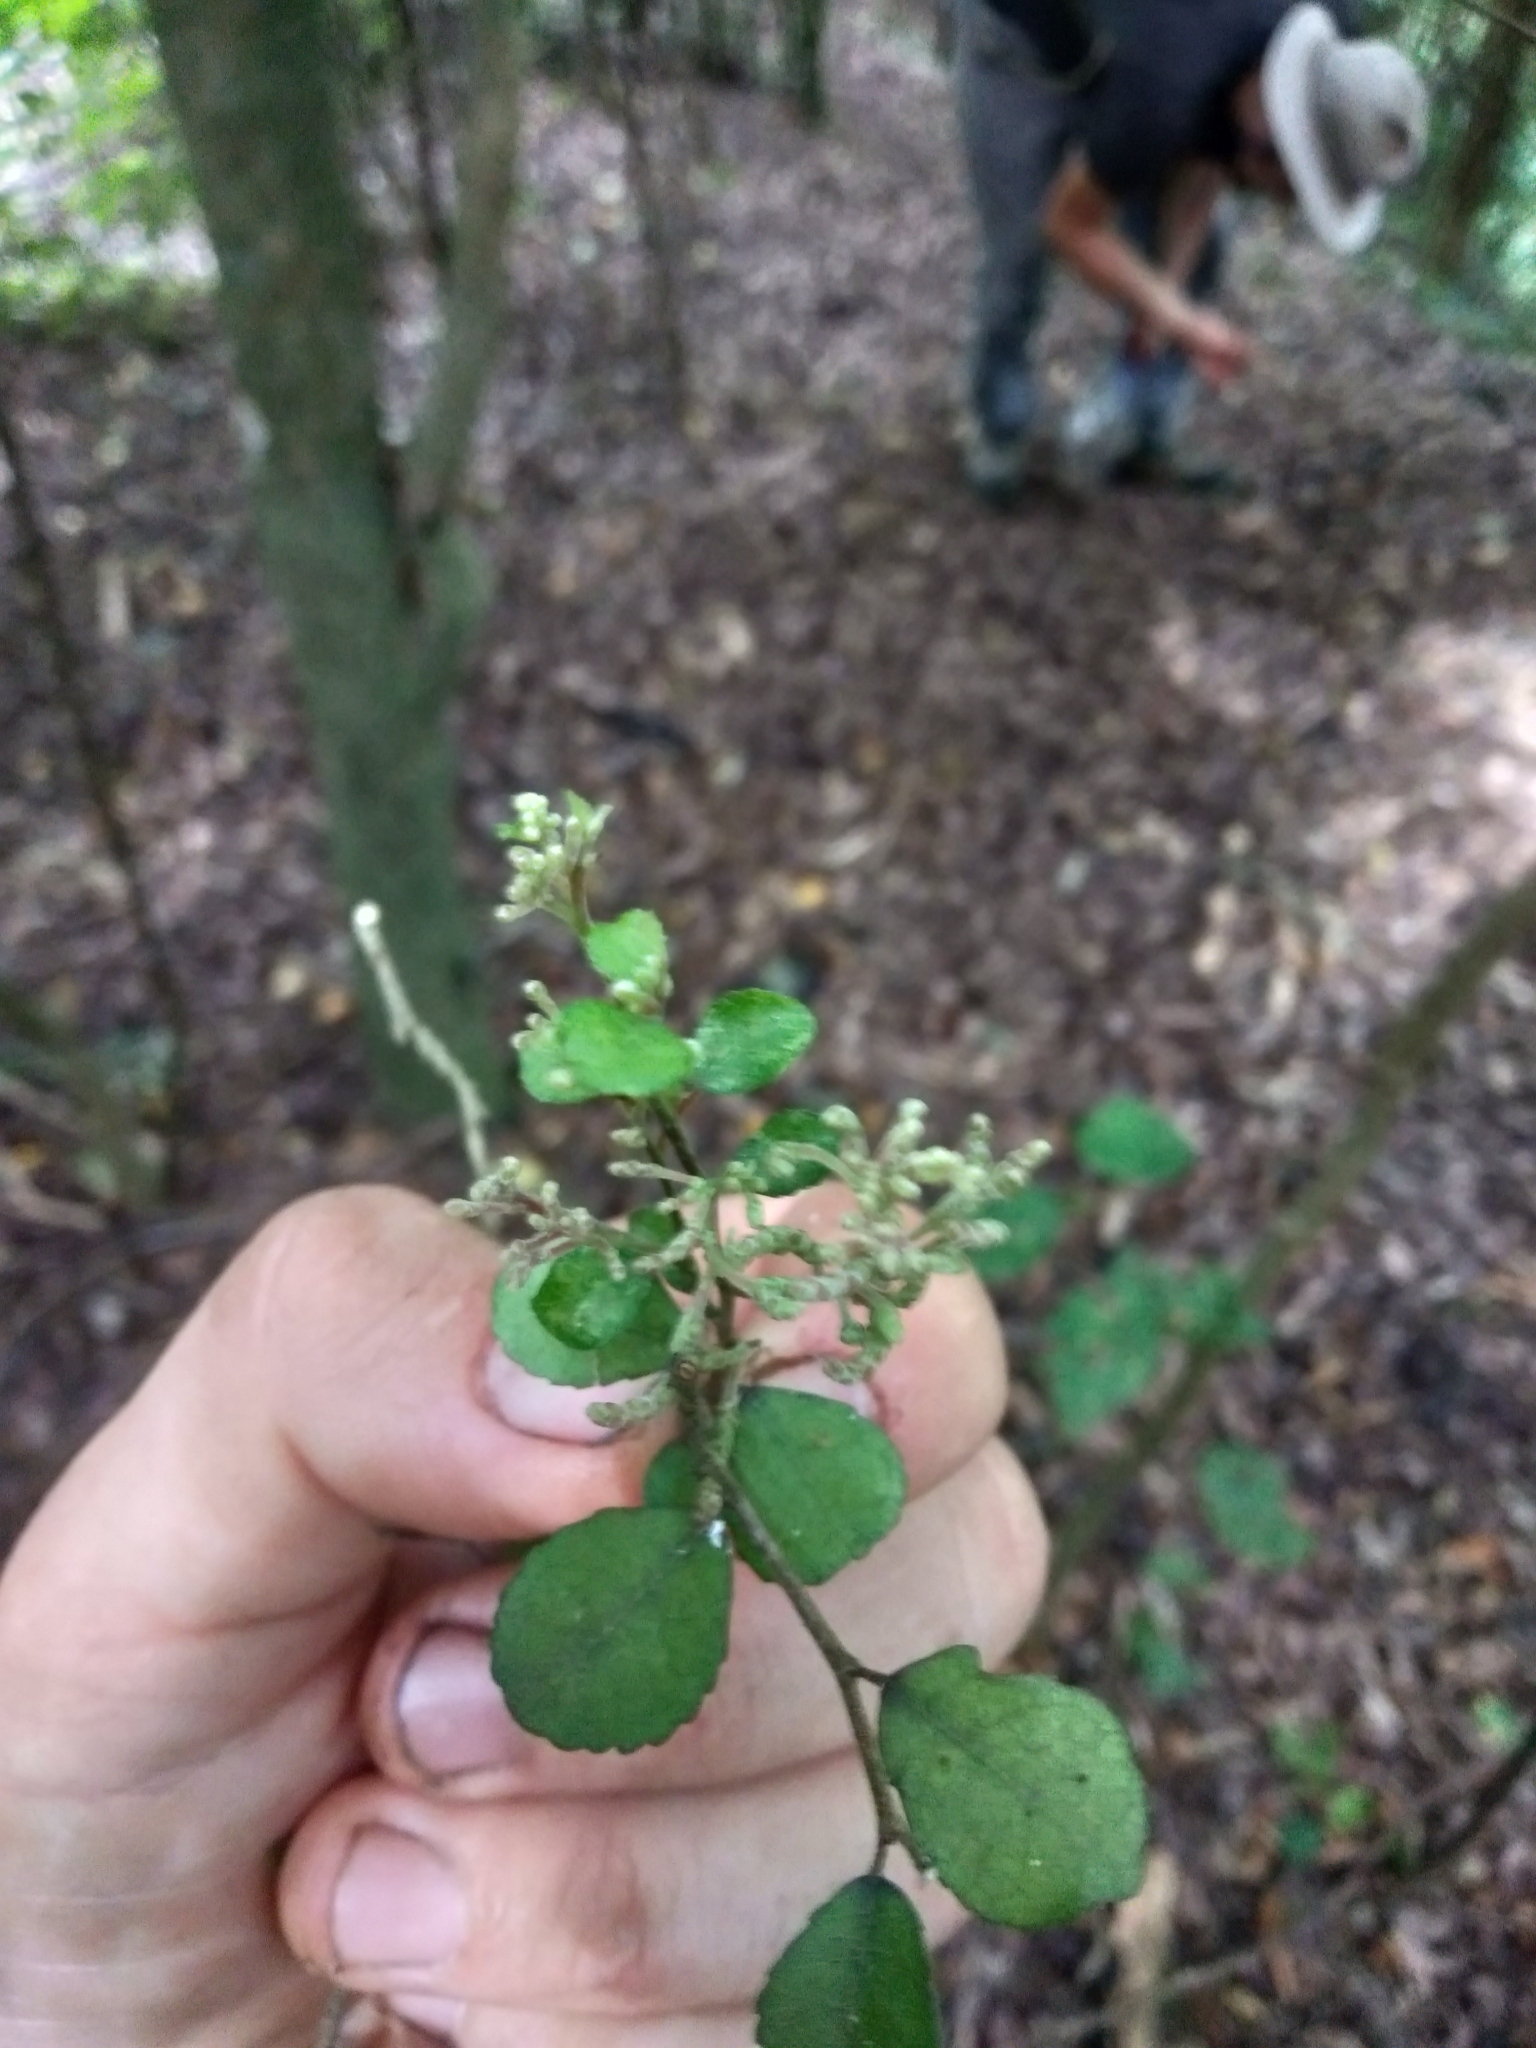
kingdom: Plantae
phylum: Tracheophyta
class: Magnoliopsida
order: Rosales
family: Moraceae
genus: Paratrophis
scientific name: Paratrophis microphylla
